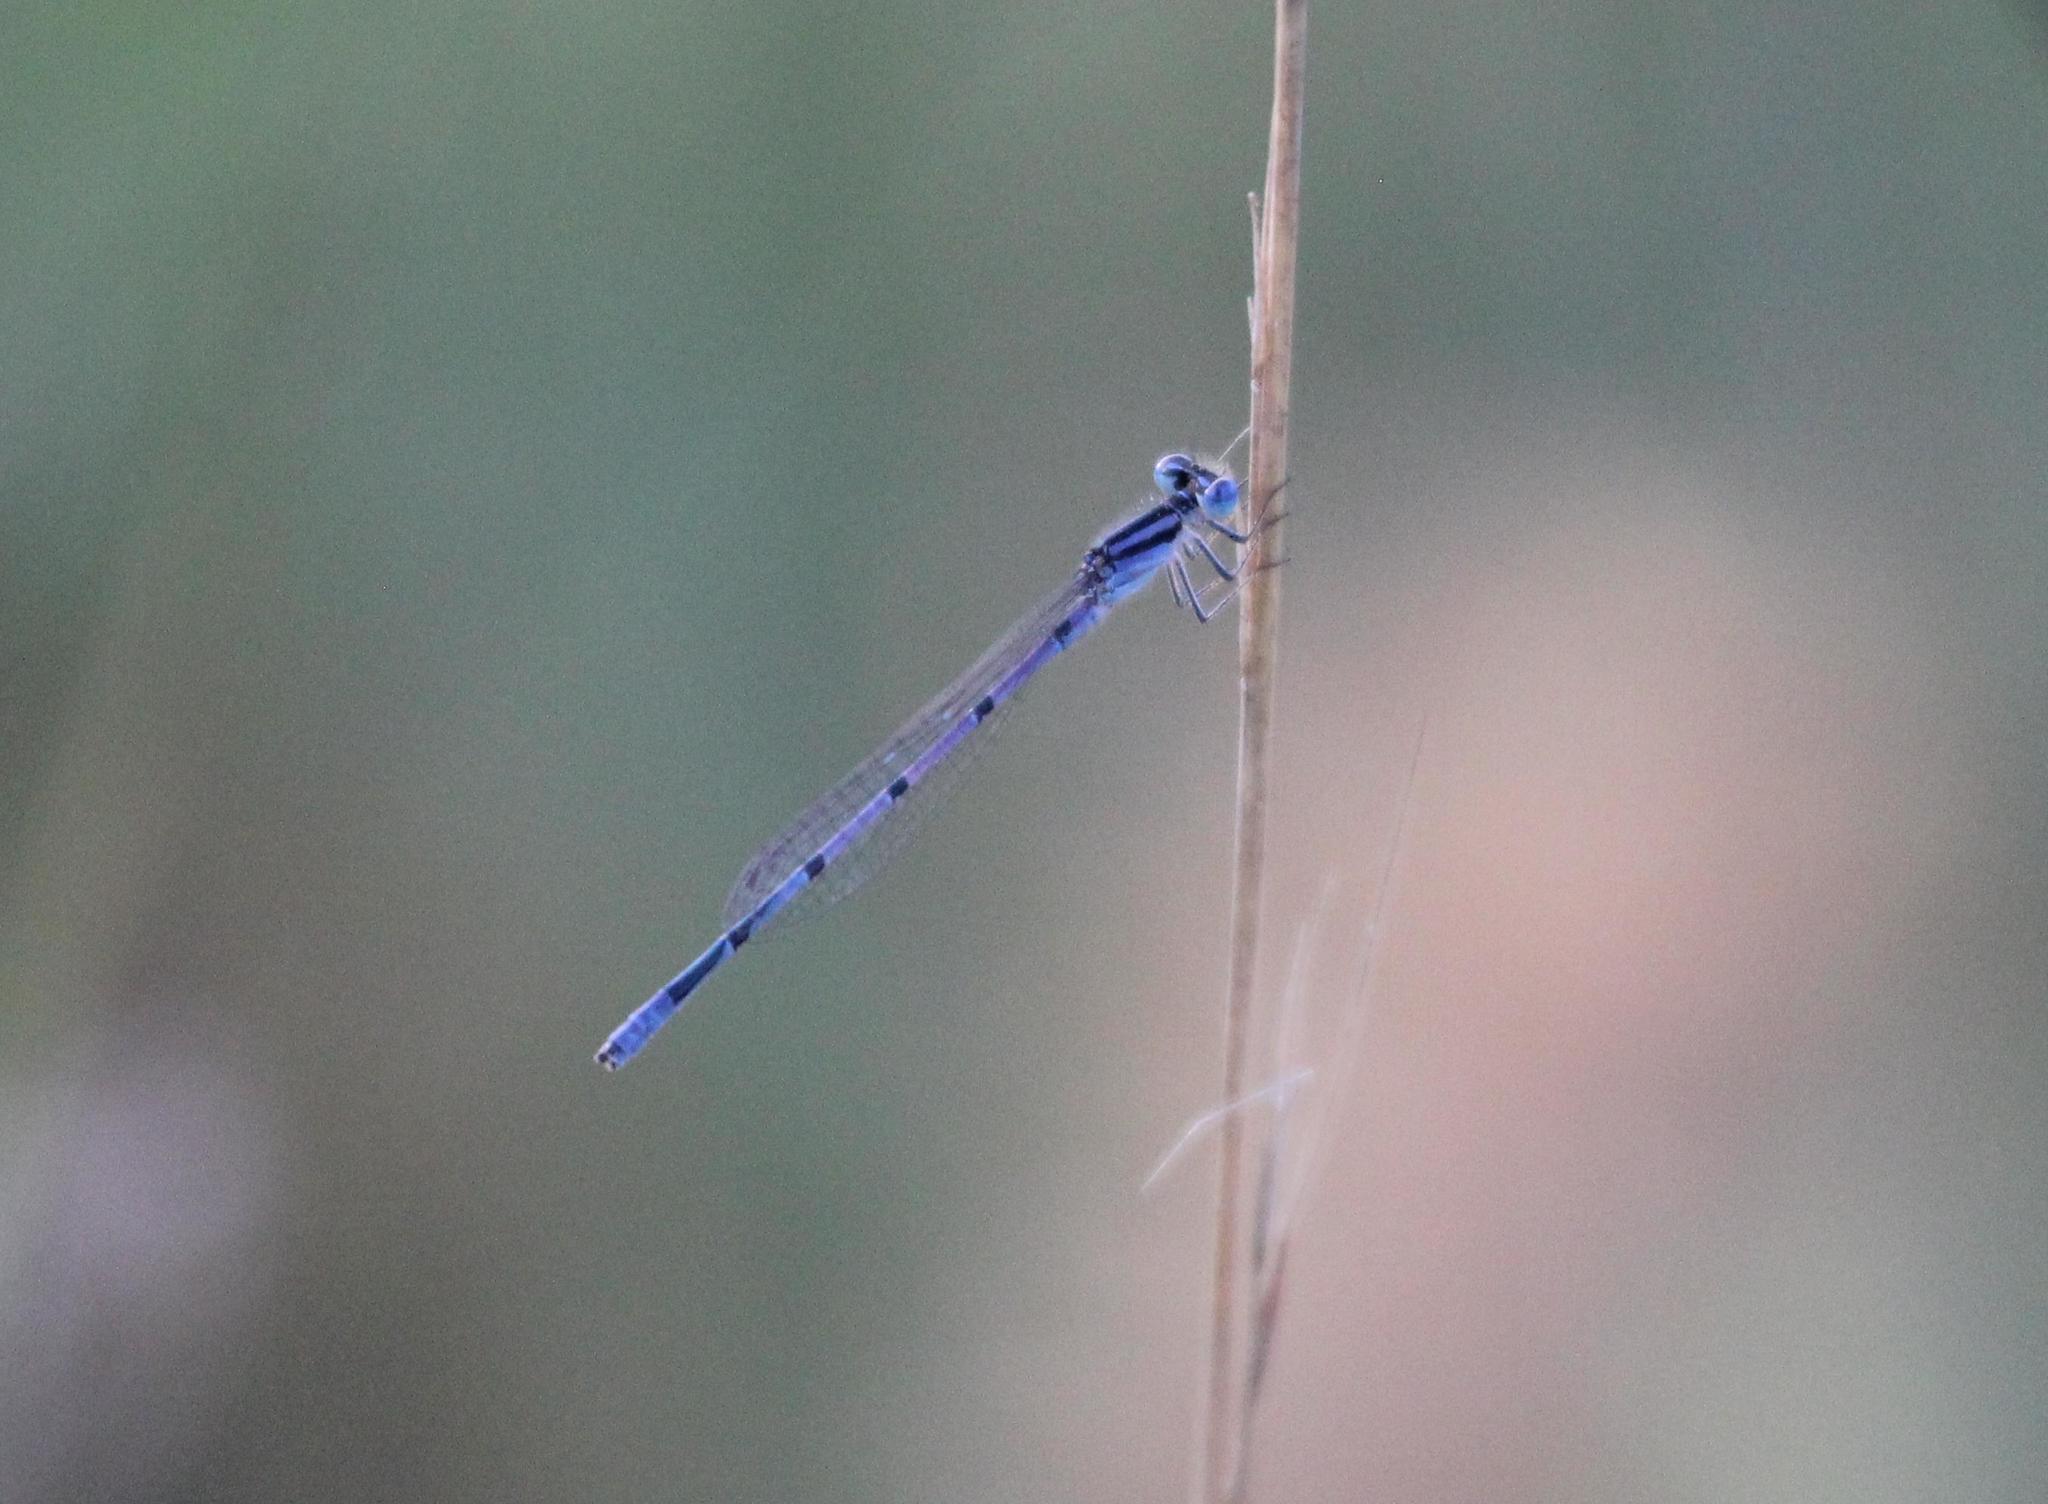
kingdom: Animalia
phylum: Arthropoda
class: Insecta
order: Odonata
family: Coenagrionidae
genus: Enallagma
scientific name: Enallagma doubledayi
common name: Atlantic bluet
